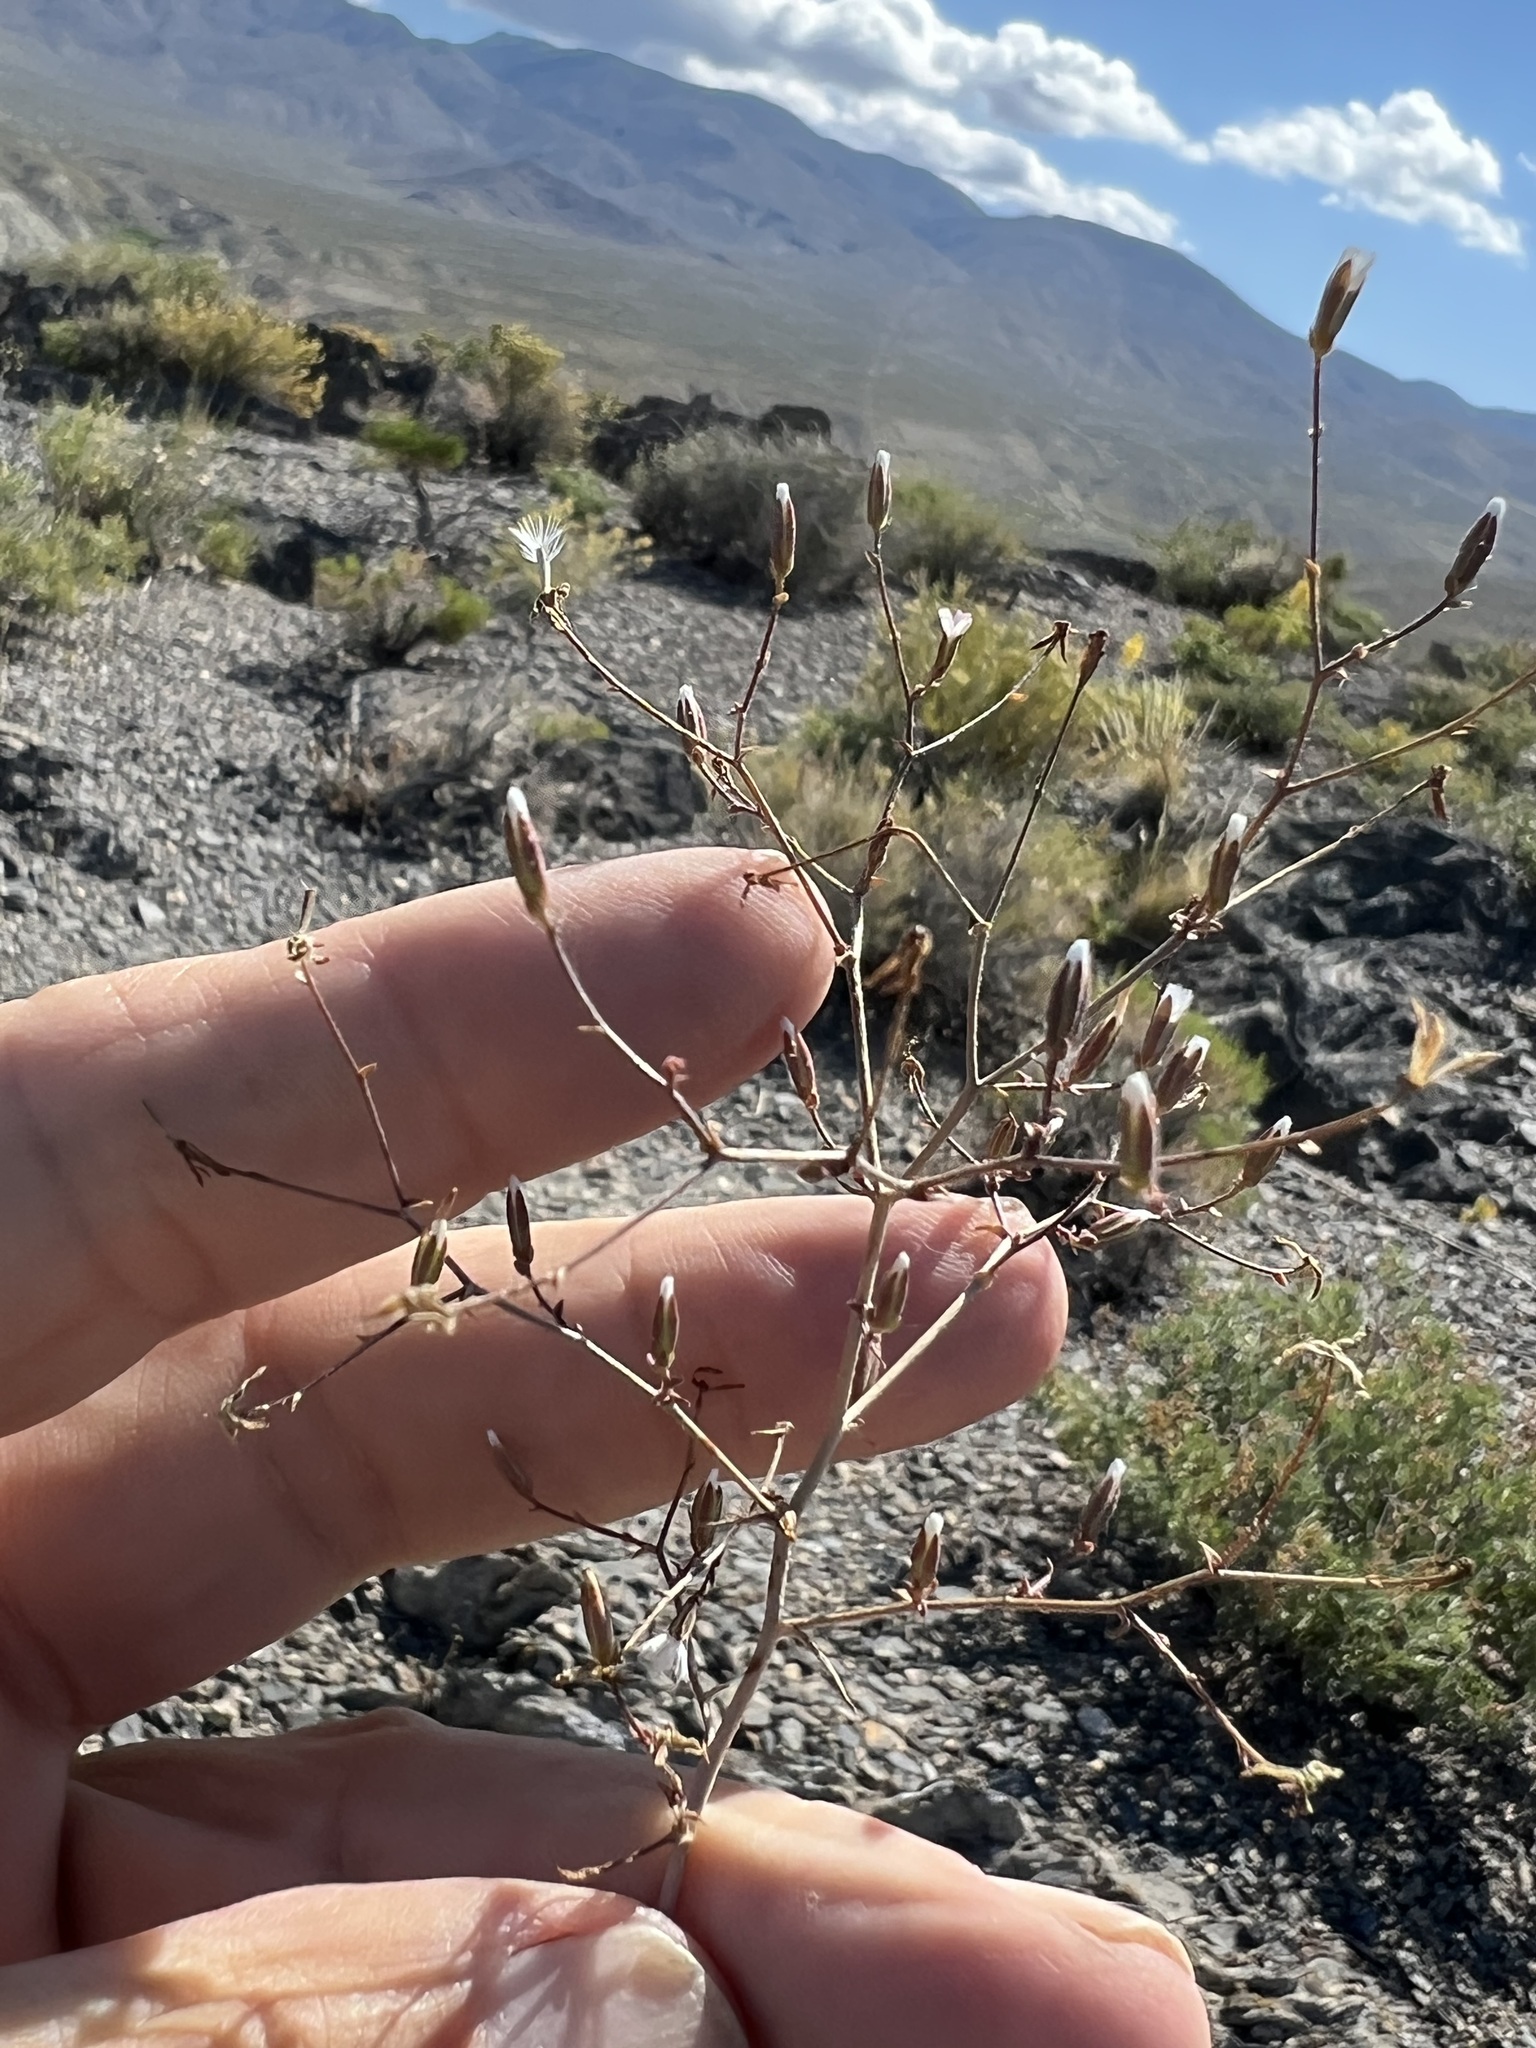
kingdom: Plantae
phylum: Tracheophyta
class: Magnoliopsida
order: Asterales
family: Asteraceae
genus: Lygodesmia
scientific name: Lygodesmia exigua
